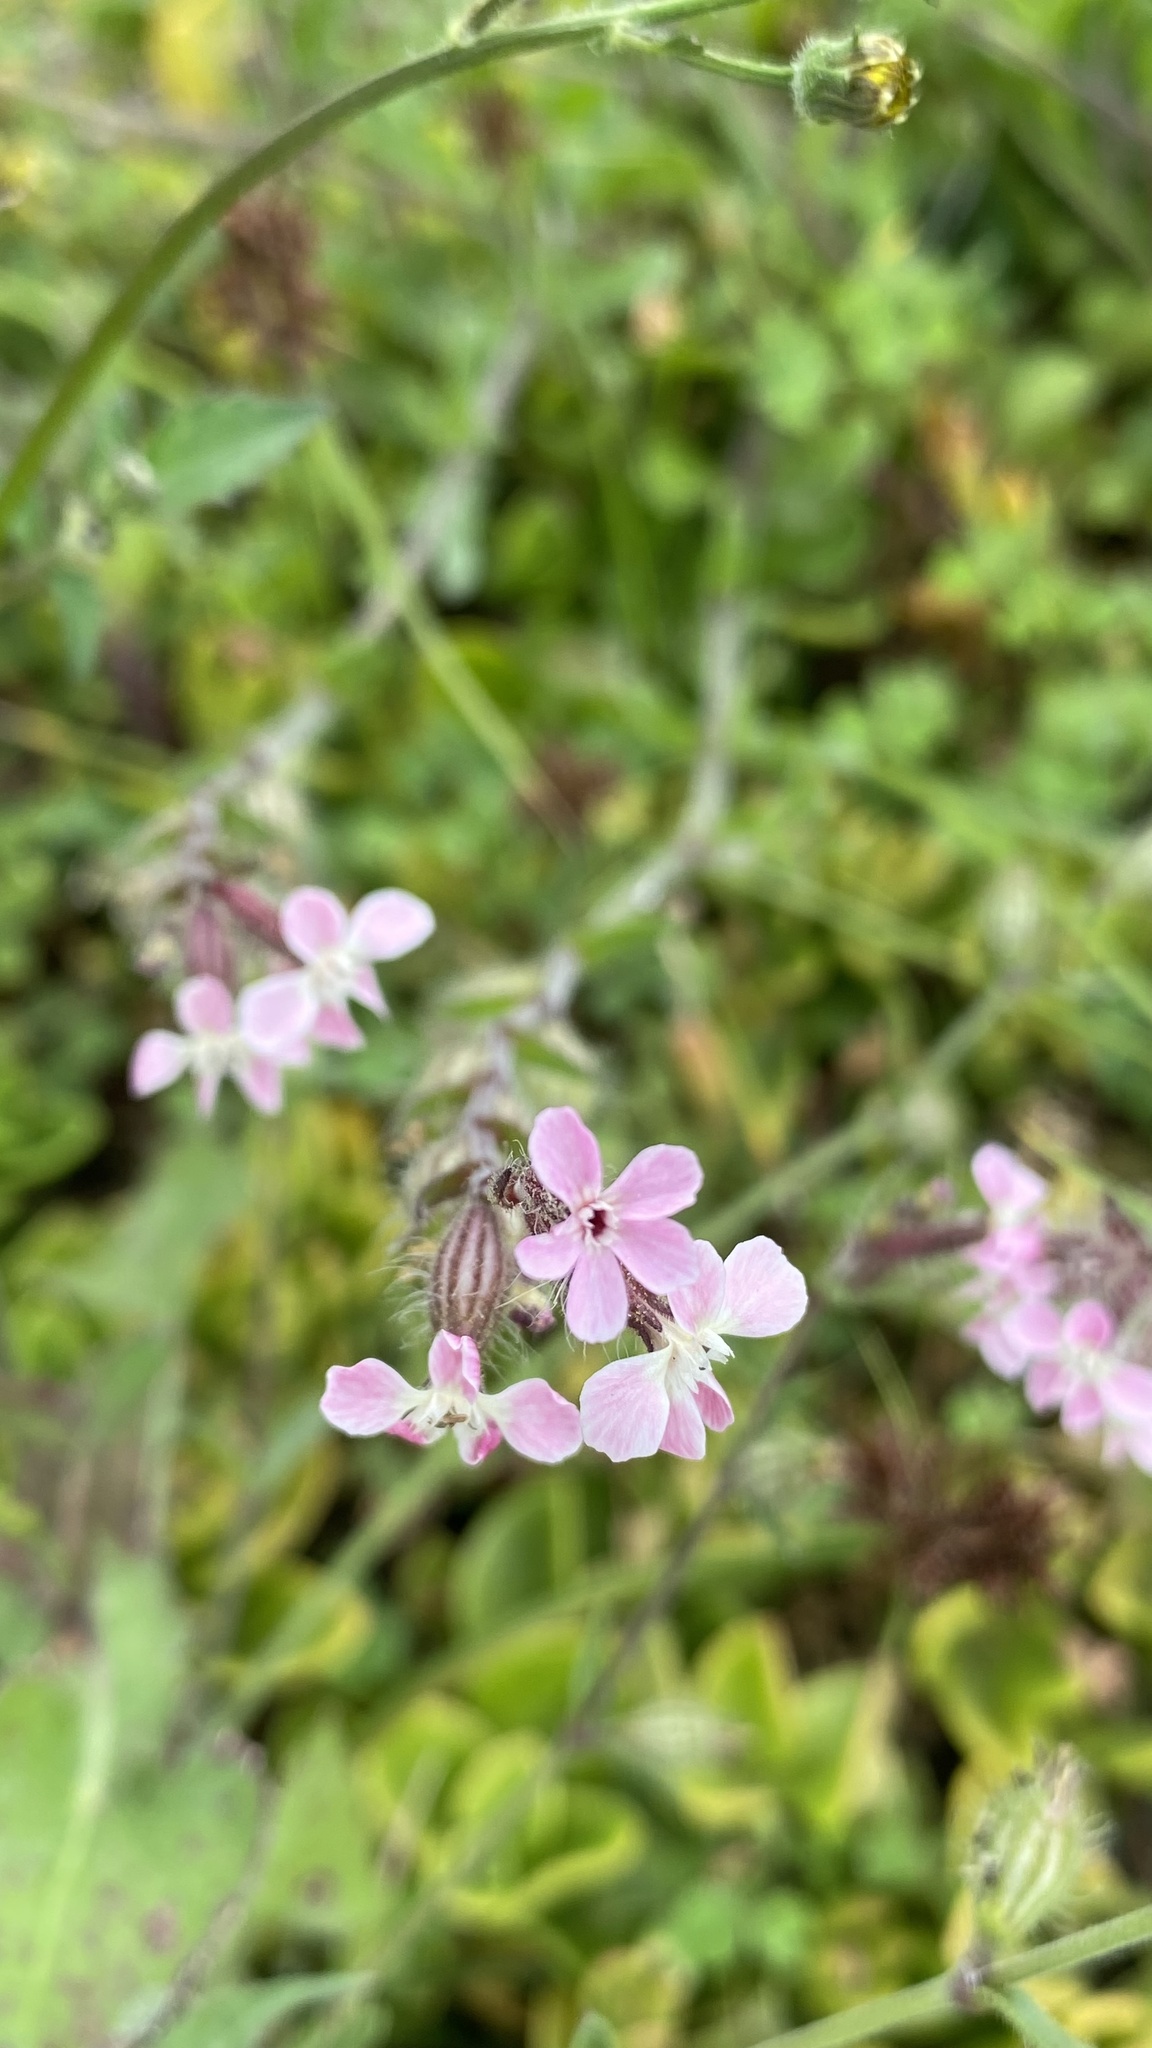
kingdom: Plantae
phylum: Tracheophyta
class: Magnoliopsida
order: Caryophyllales
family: Caryophyllaceae
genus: Silene
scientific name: Silene gallica
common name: Small-flowered catchfly
